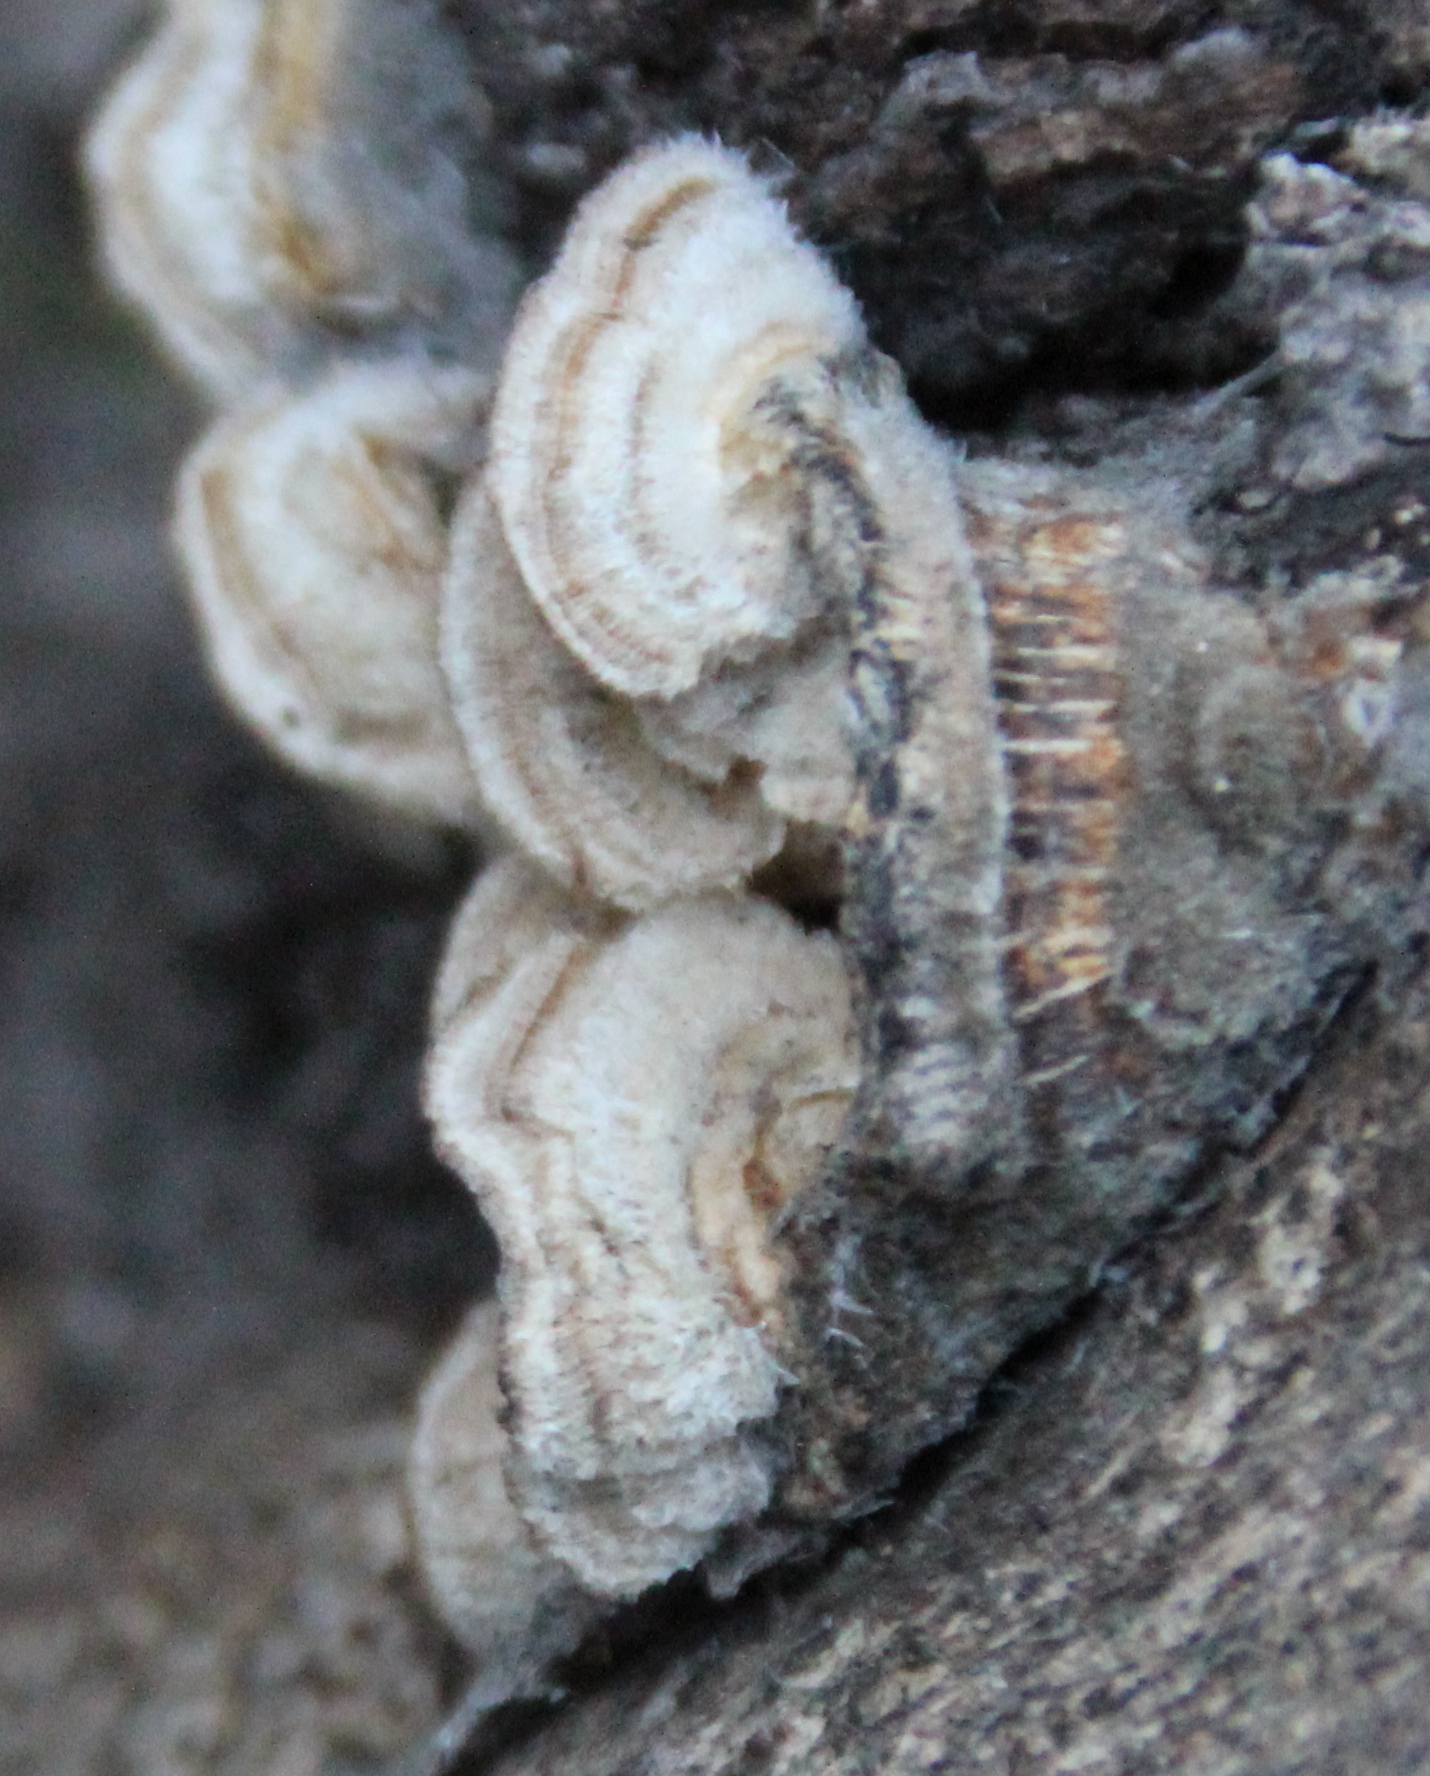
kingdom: Fungi
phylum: Basidiomycota
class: Agaricomycetes
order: Russulales
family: Stereaceae
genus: Stereum
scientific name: Stereum hirsutum
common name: Hairy curtain crust
